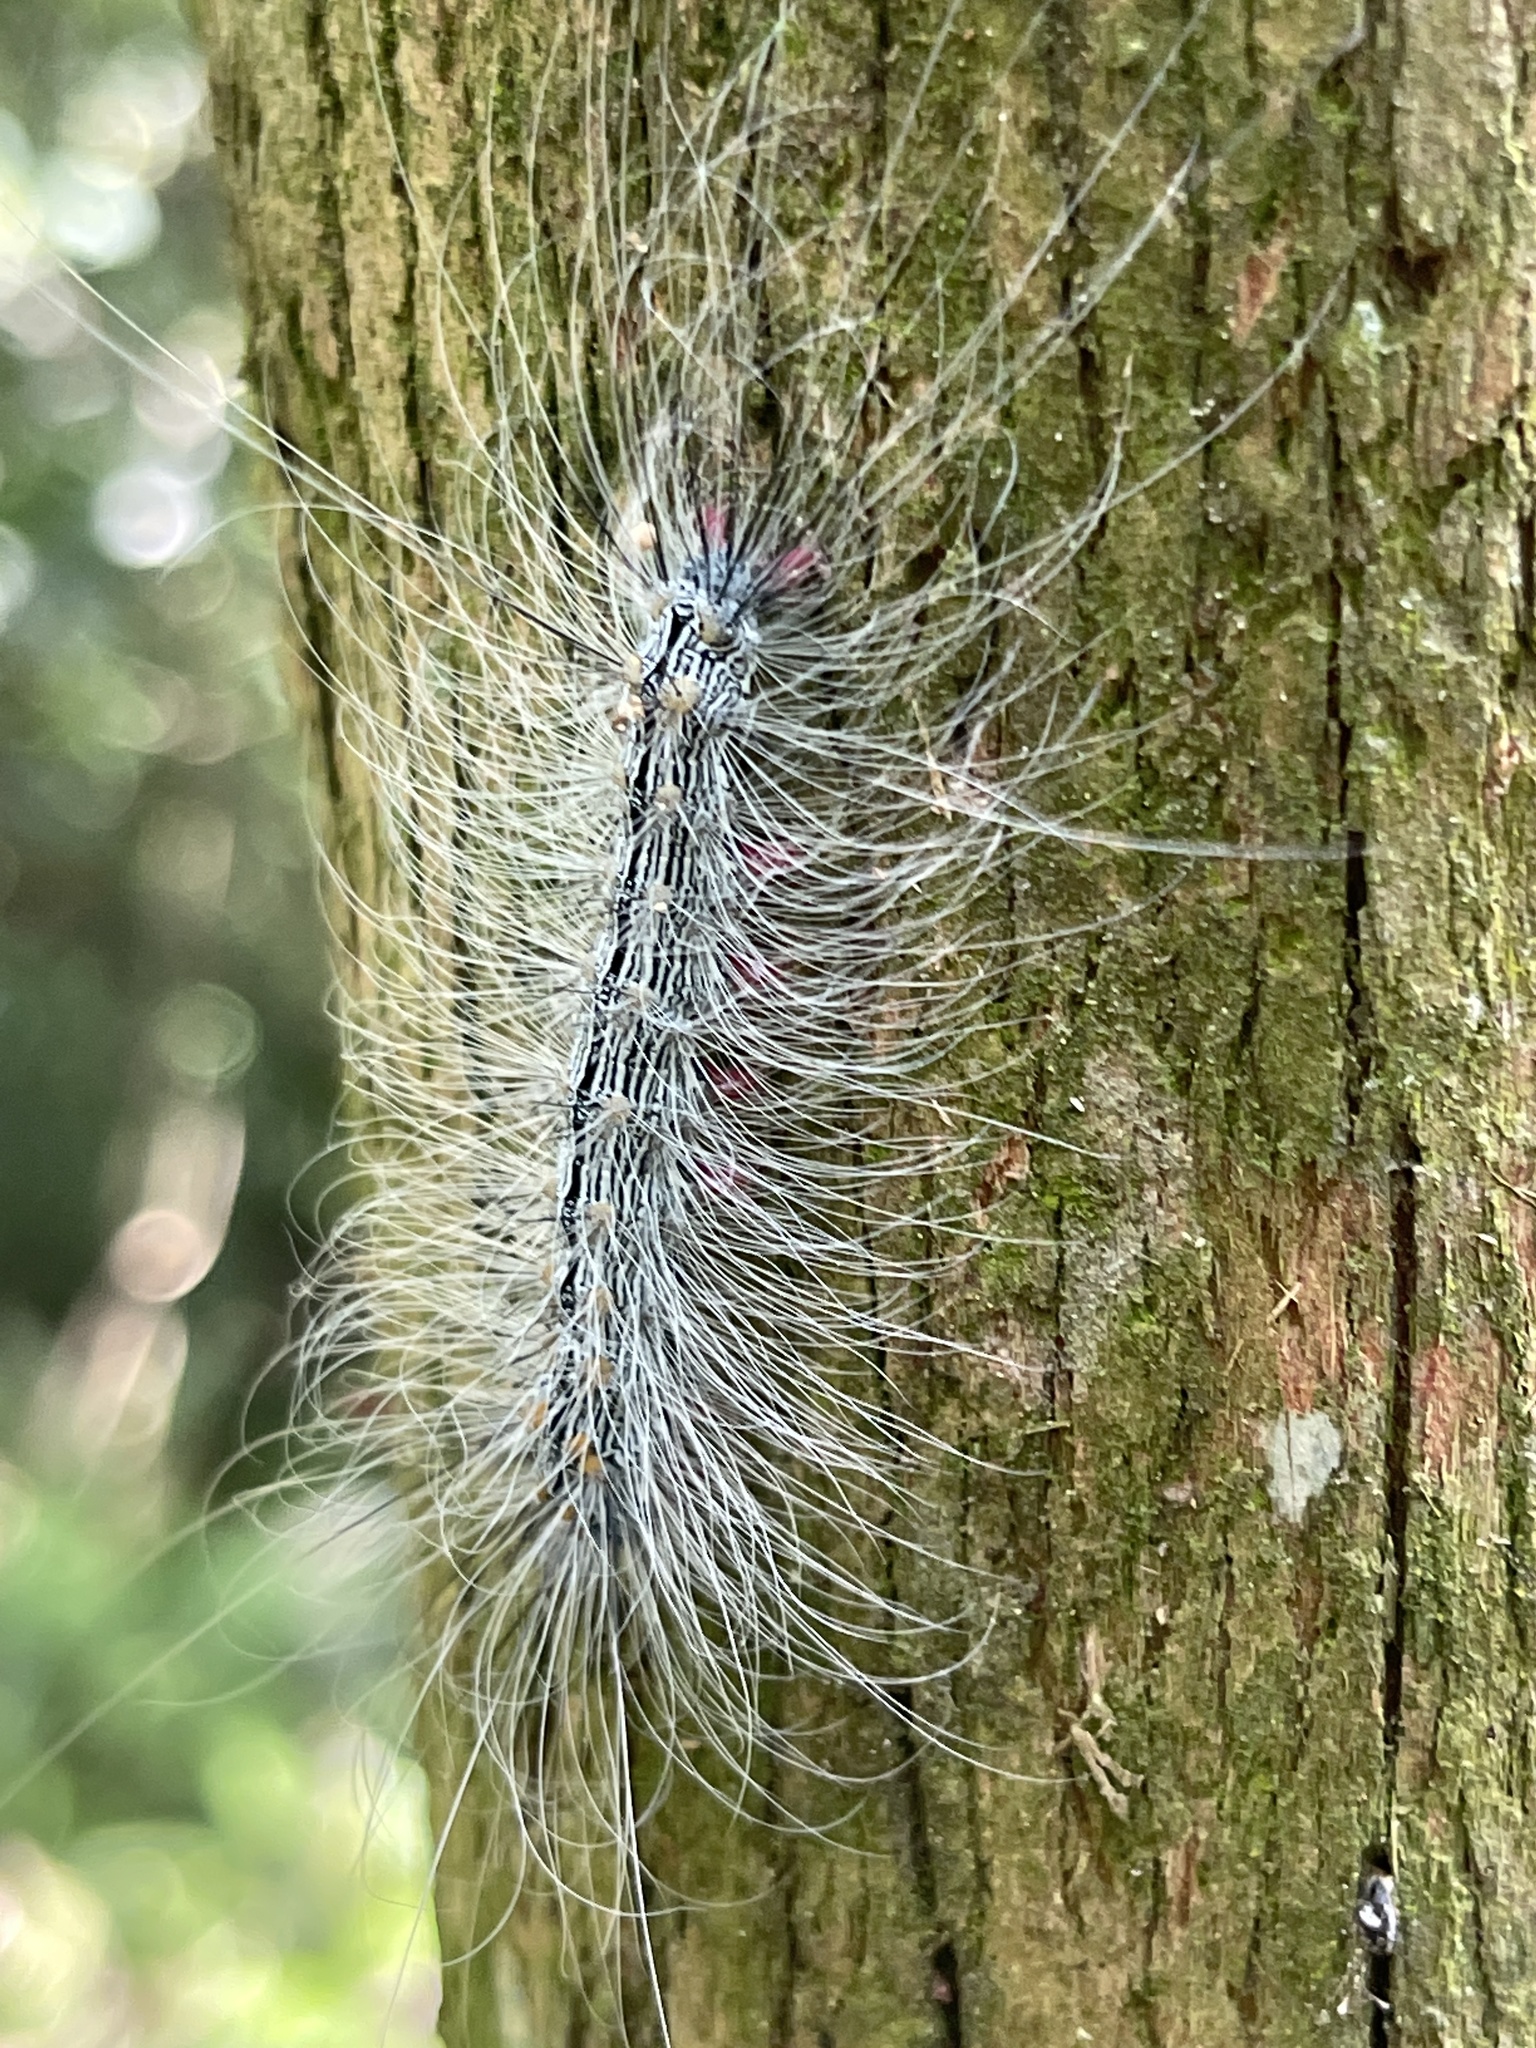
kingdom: Animalia
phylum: Arthropoda
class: Insecta
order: Lepidoptera
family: Erebidae
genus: Chrysaeglia
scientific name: Chrysaeglia magnifica
